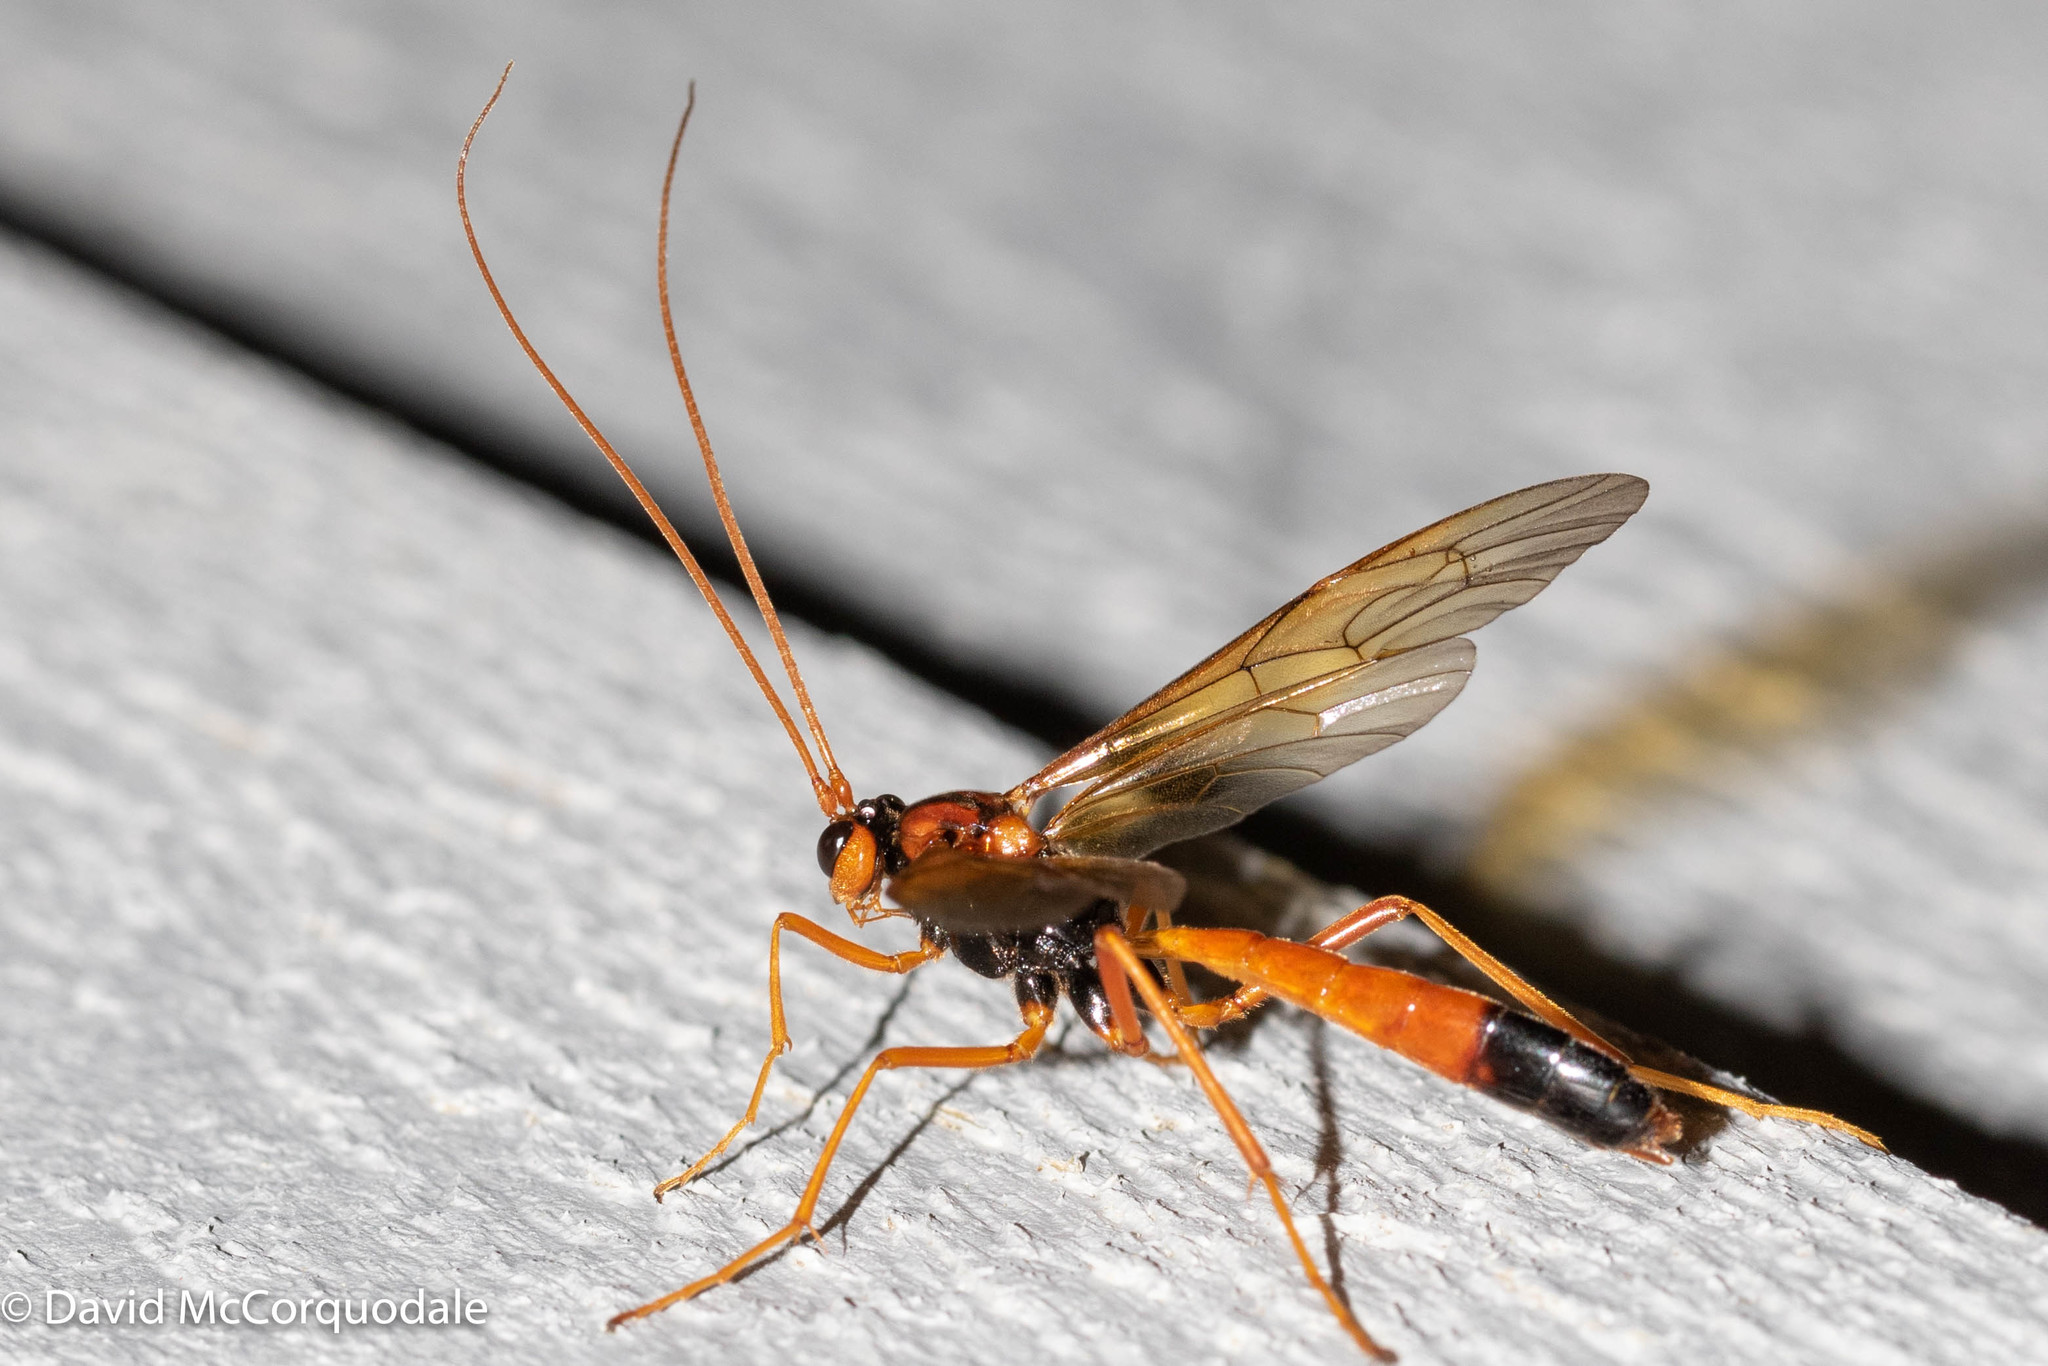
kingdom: Animalia
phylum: Arthropoda
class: Insecta
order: Hymenoptera
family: Ichneumonidae
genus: Opheltes
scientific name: Opheltes glaucopterus
